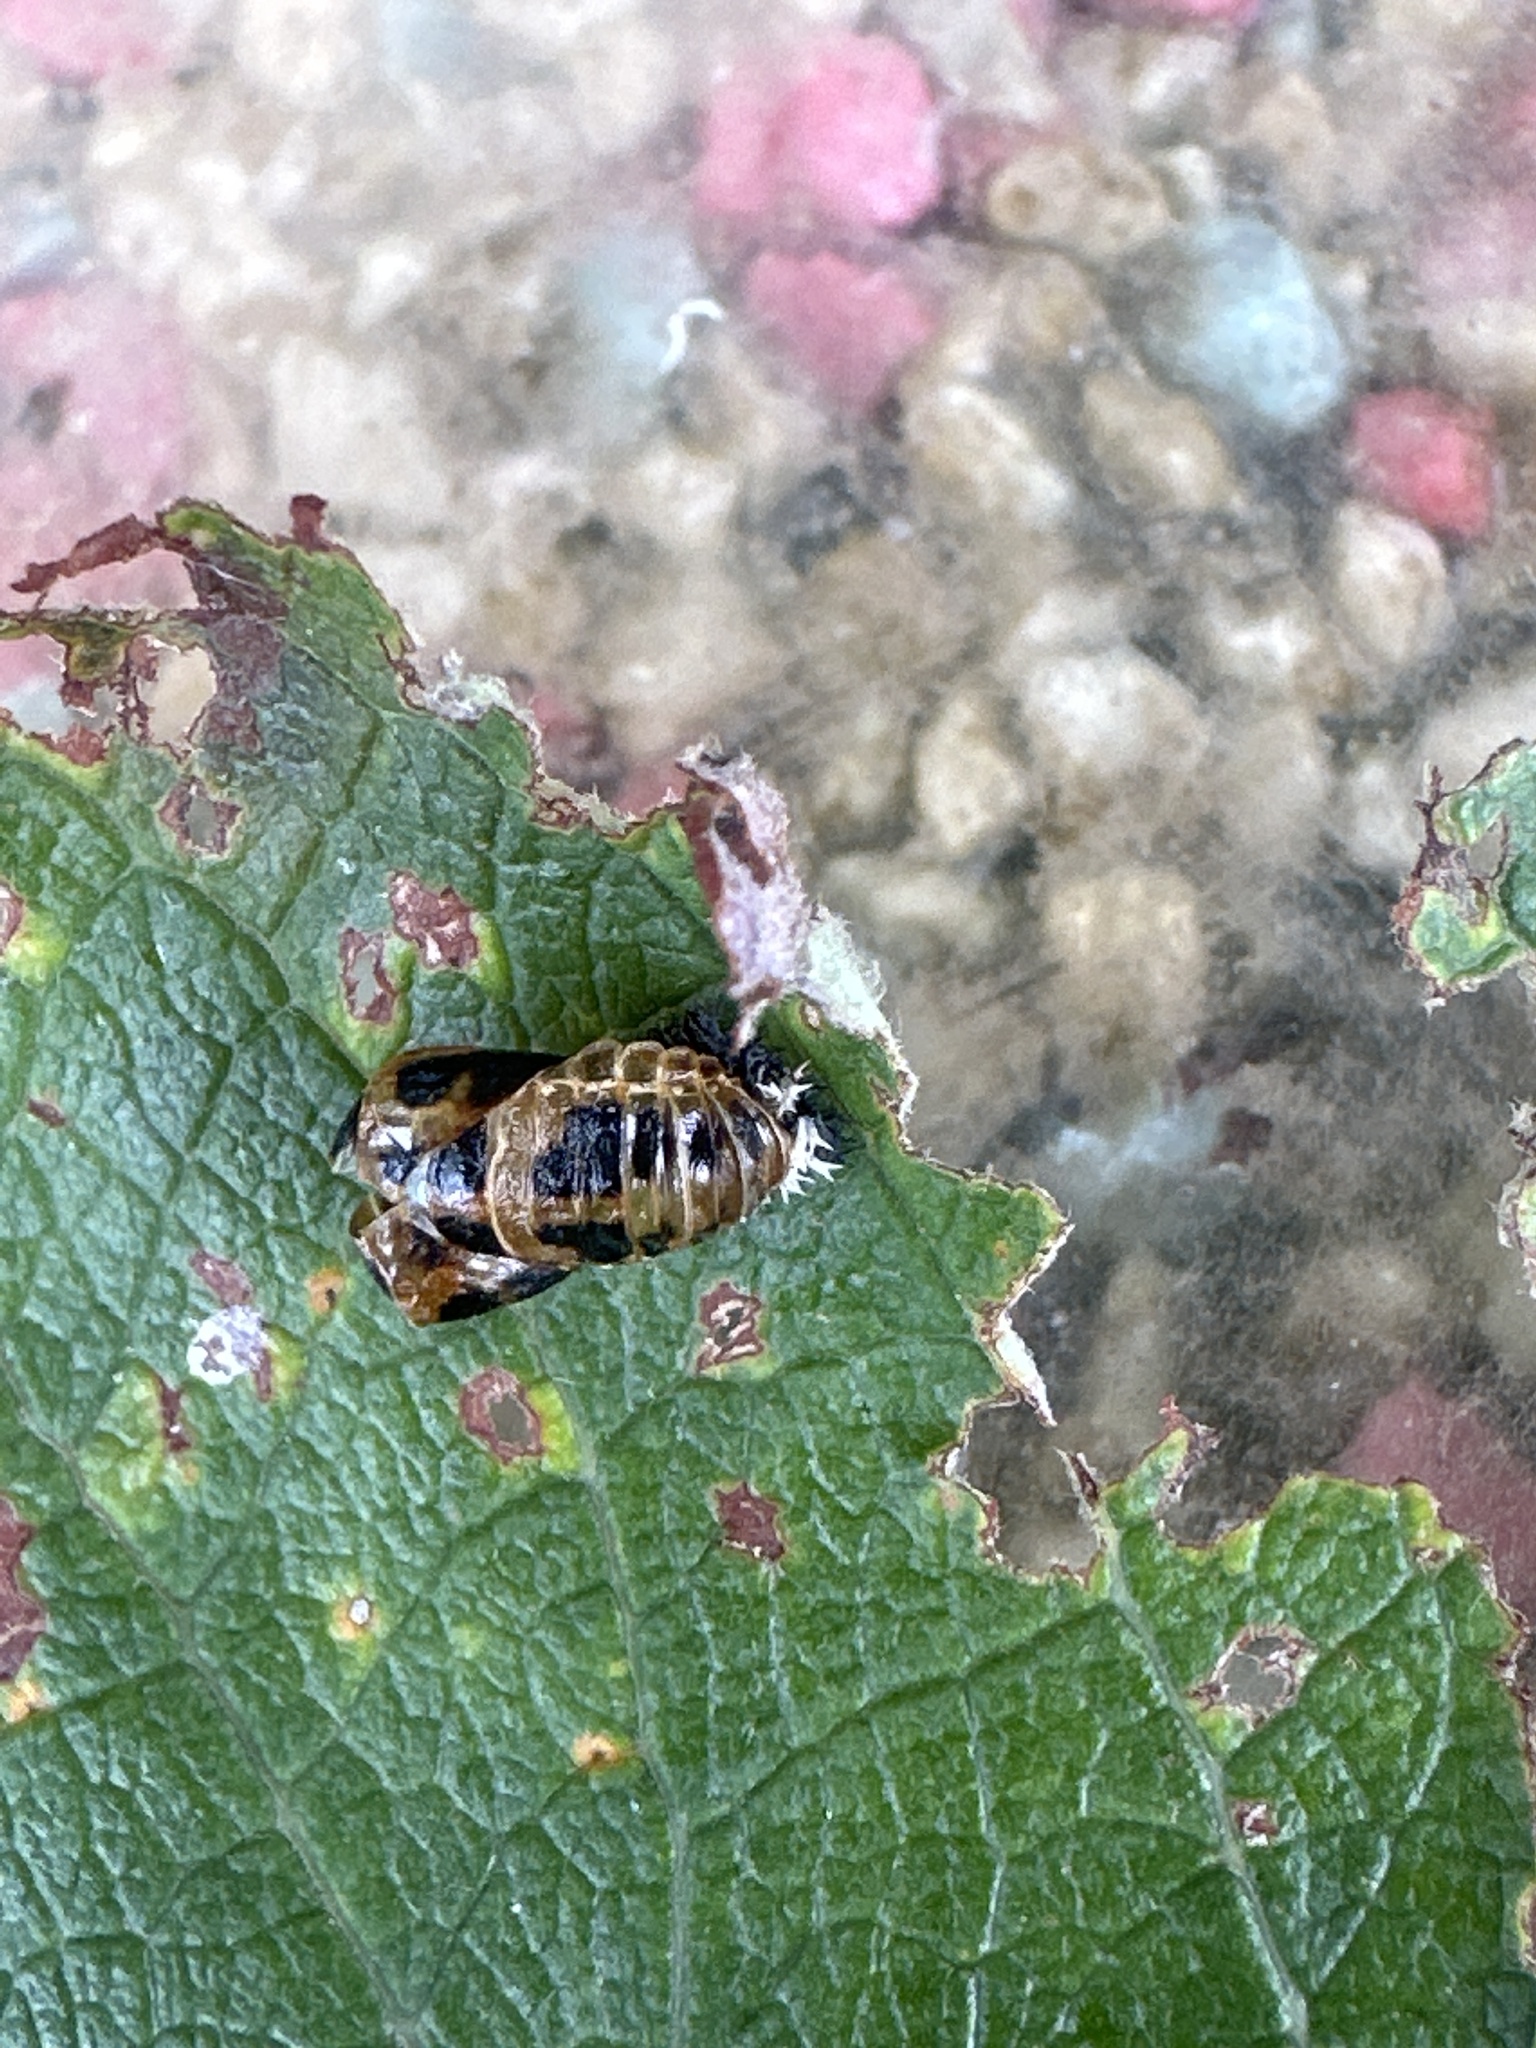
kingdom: Animalia
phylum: Arthropoda
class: Insecta
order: Coleoptera
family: Coccinellidae
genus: Harmonia
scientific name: Harmonia axyridis
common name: Harlequin ladybird
